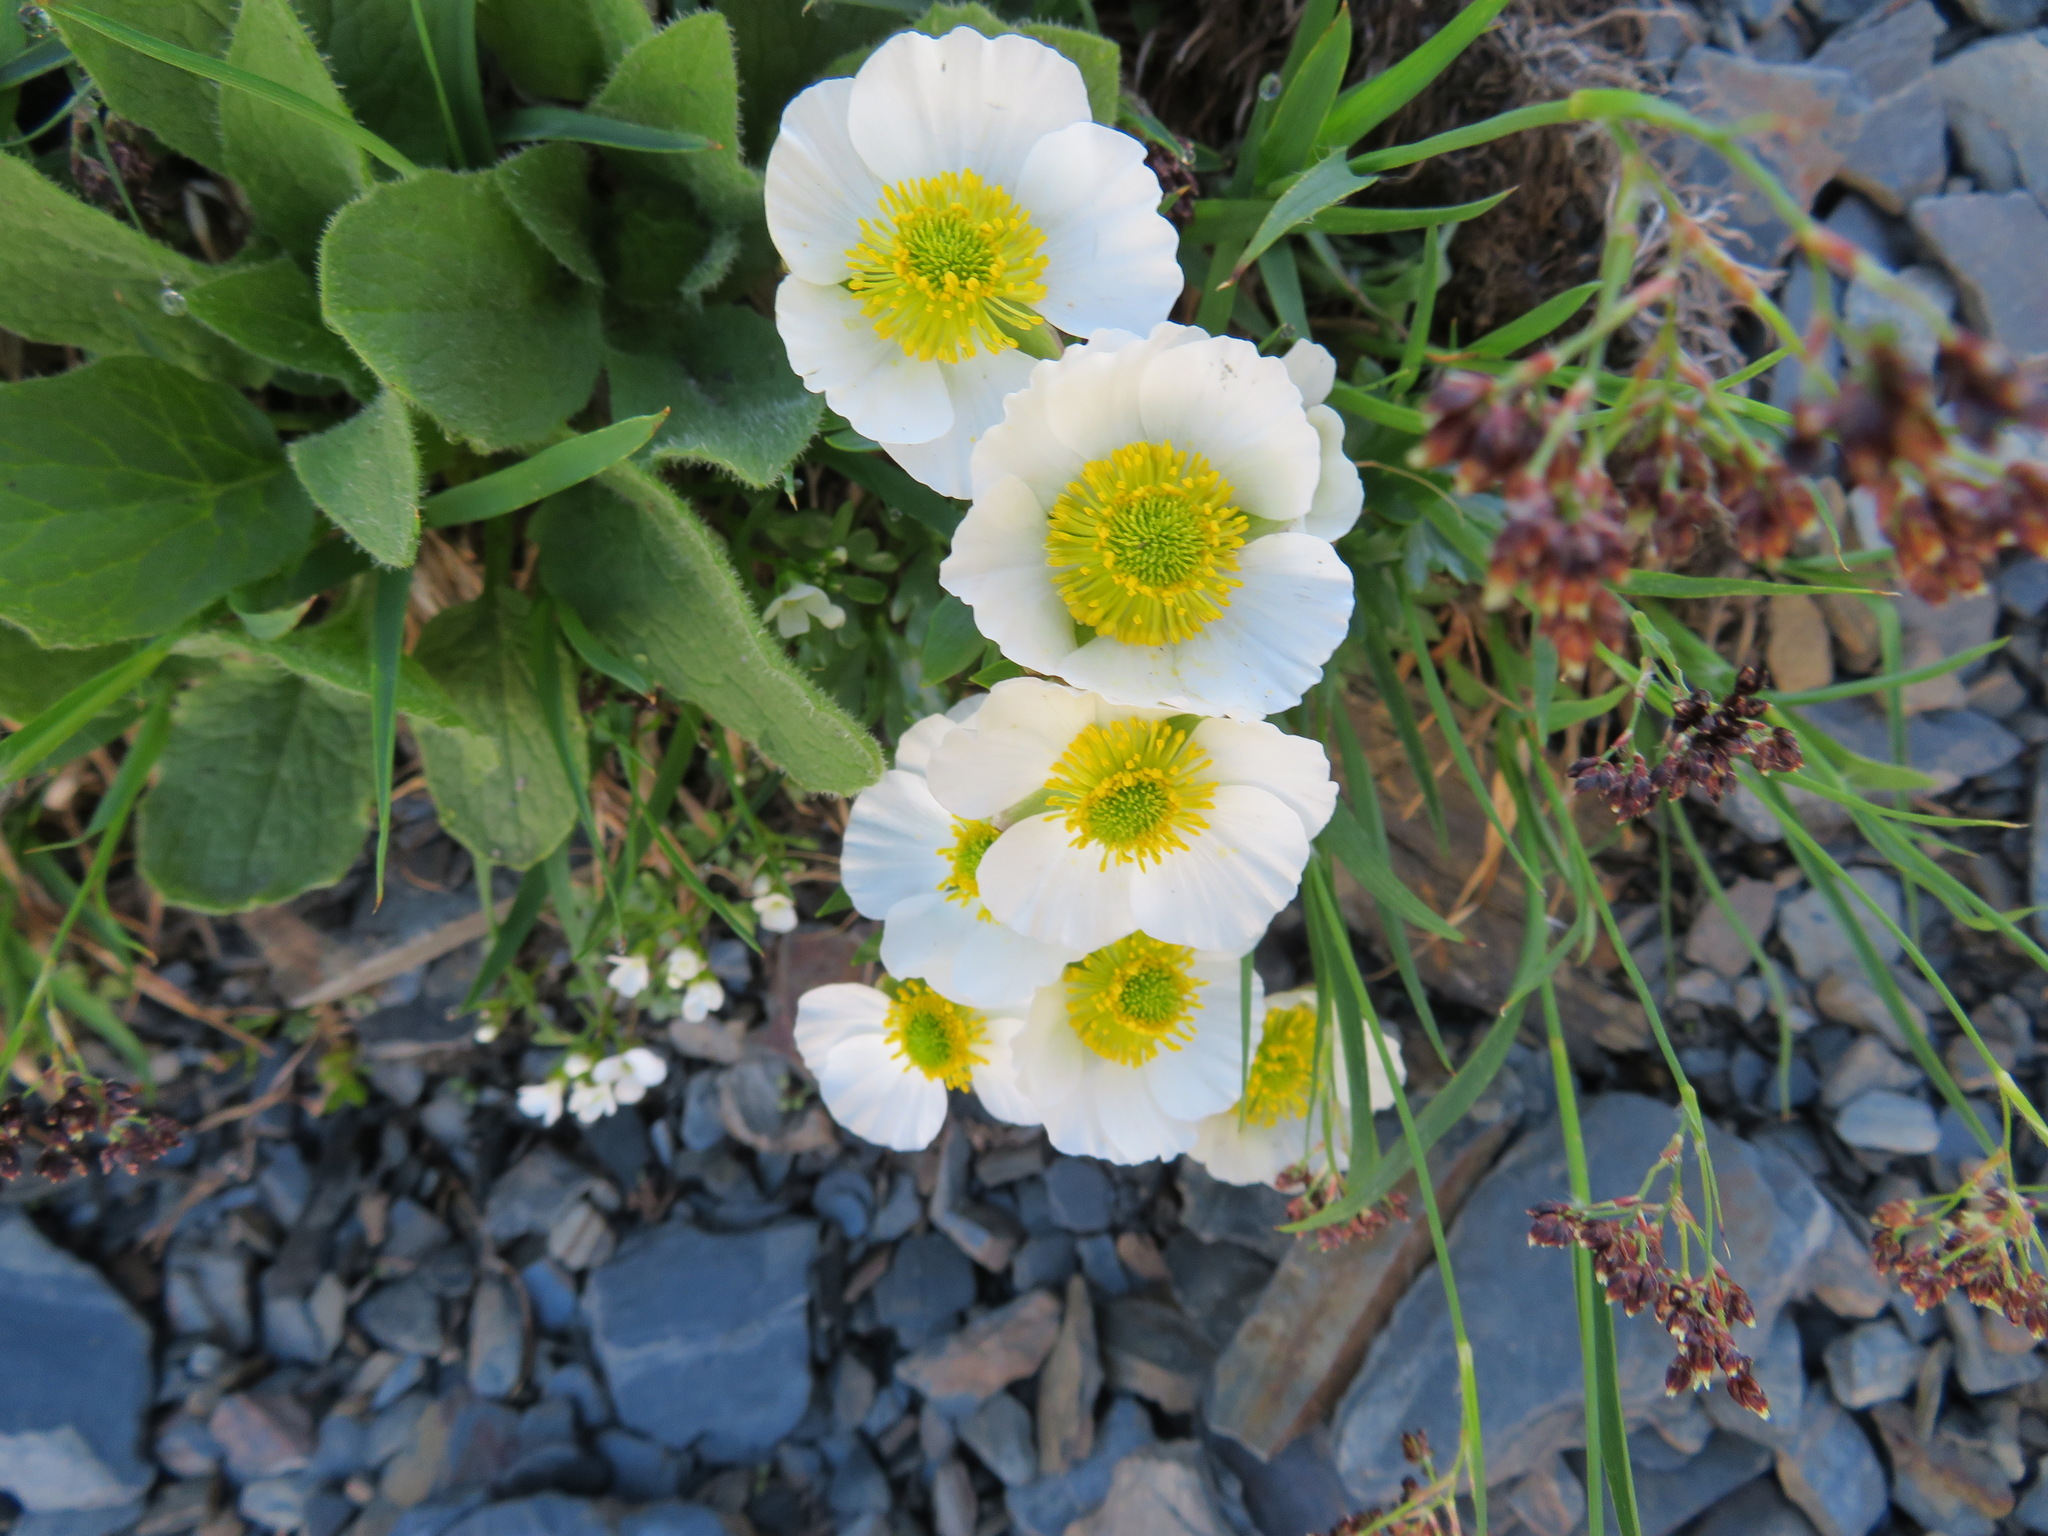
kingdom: Plantae
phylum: Tracheophyta
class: Magnoliopsida
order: Ranunculales
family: Ranunculaceae
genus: Ranunculus
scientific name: Ranunculus glacialis
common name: Glacier buttercup
